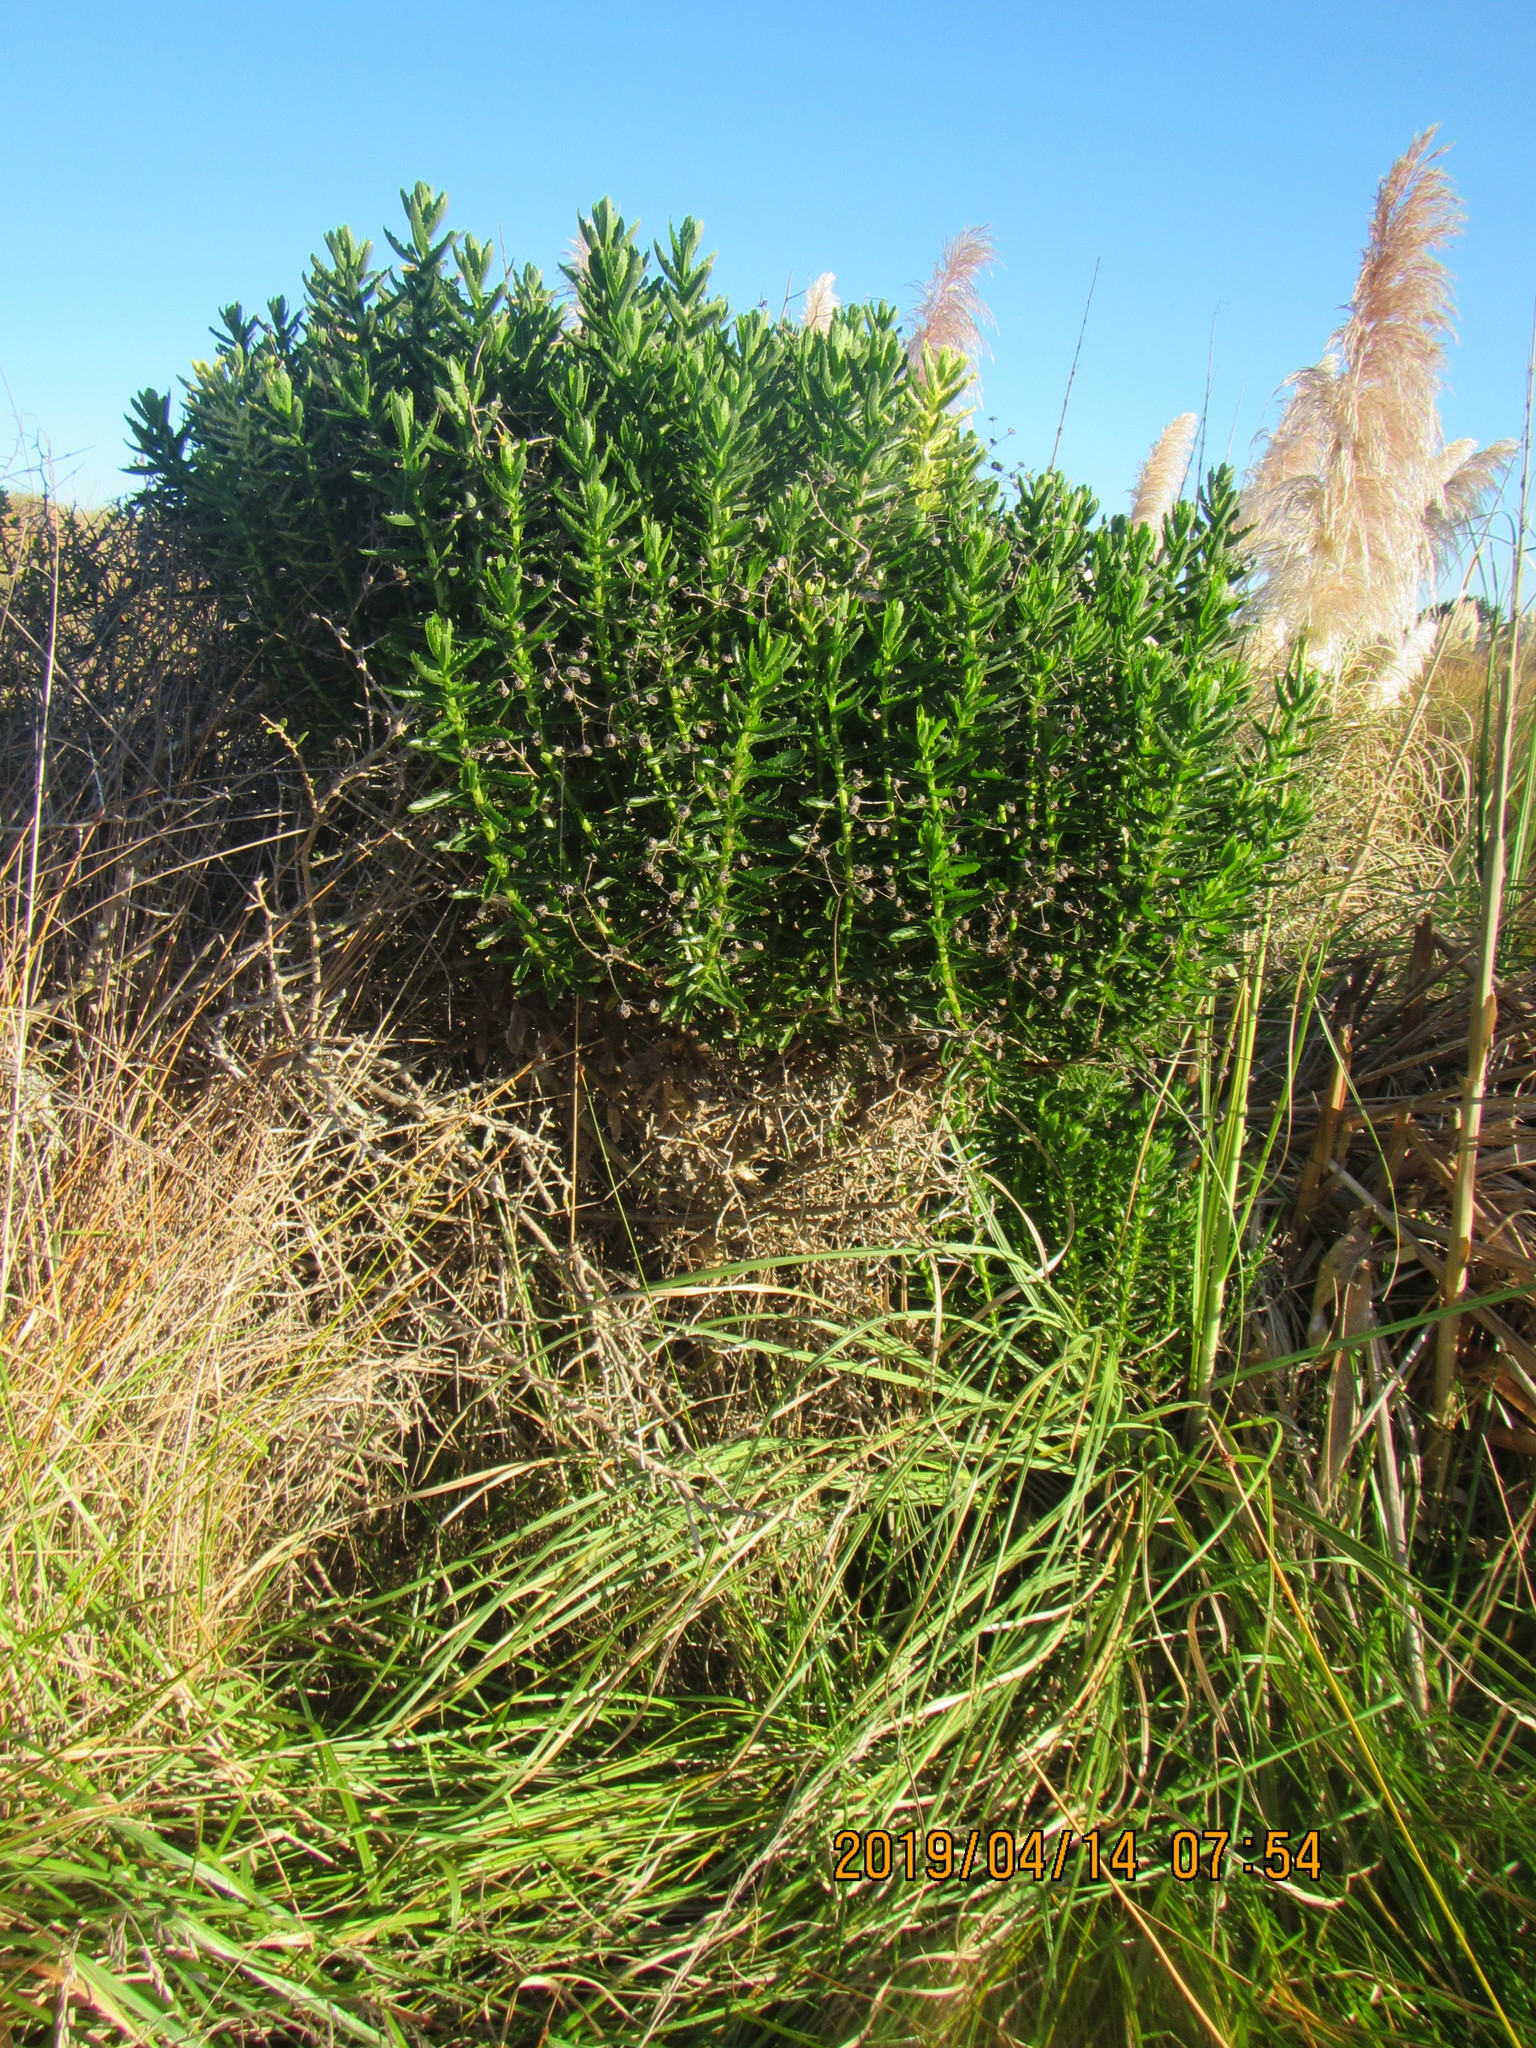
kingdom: Plantae
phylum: Tracheophyta
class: Magnoliopsida
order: Asterales
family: Asteraceae
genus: Senecio
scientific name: Senecio glastifolius
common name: Woad-leaved ragwort
